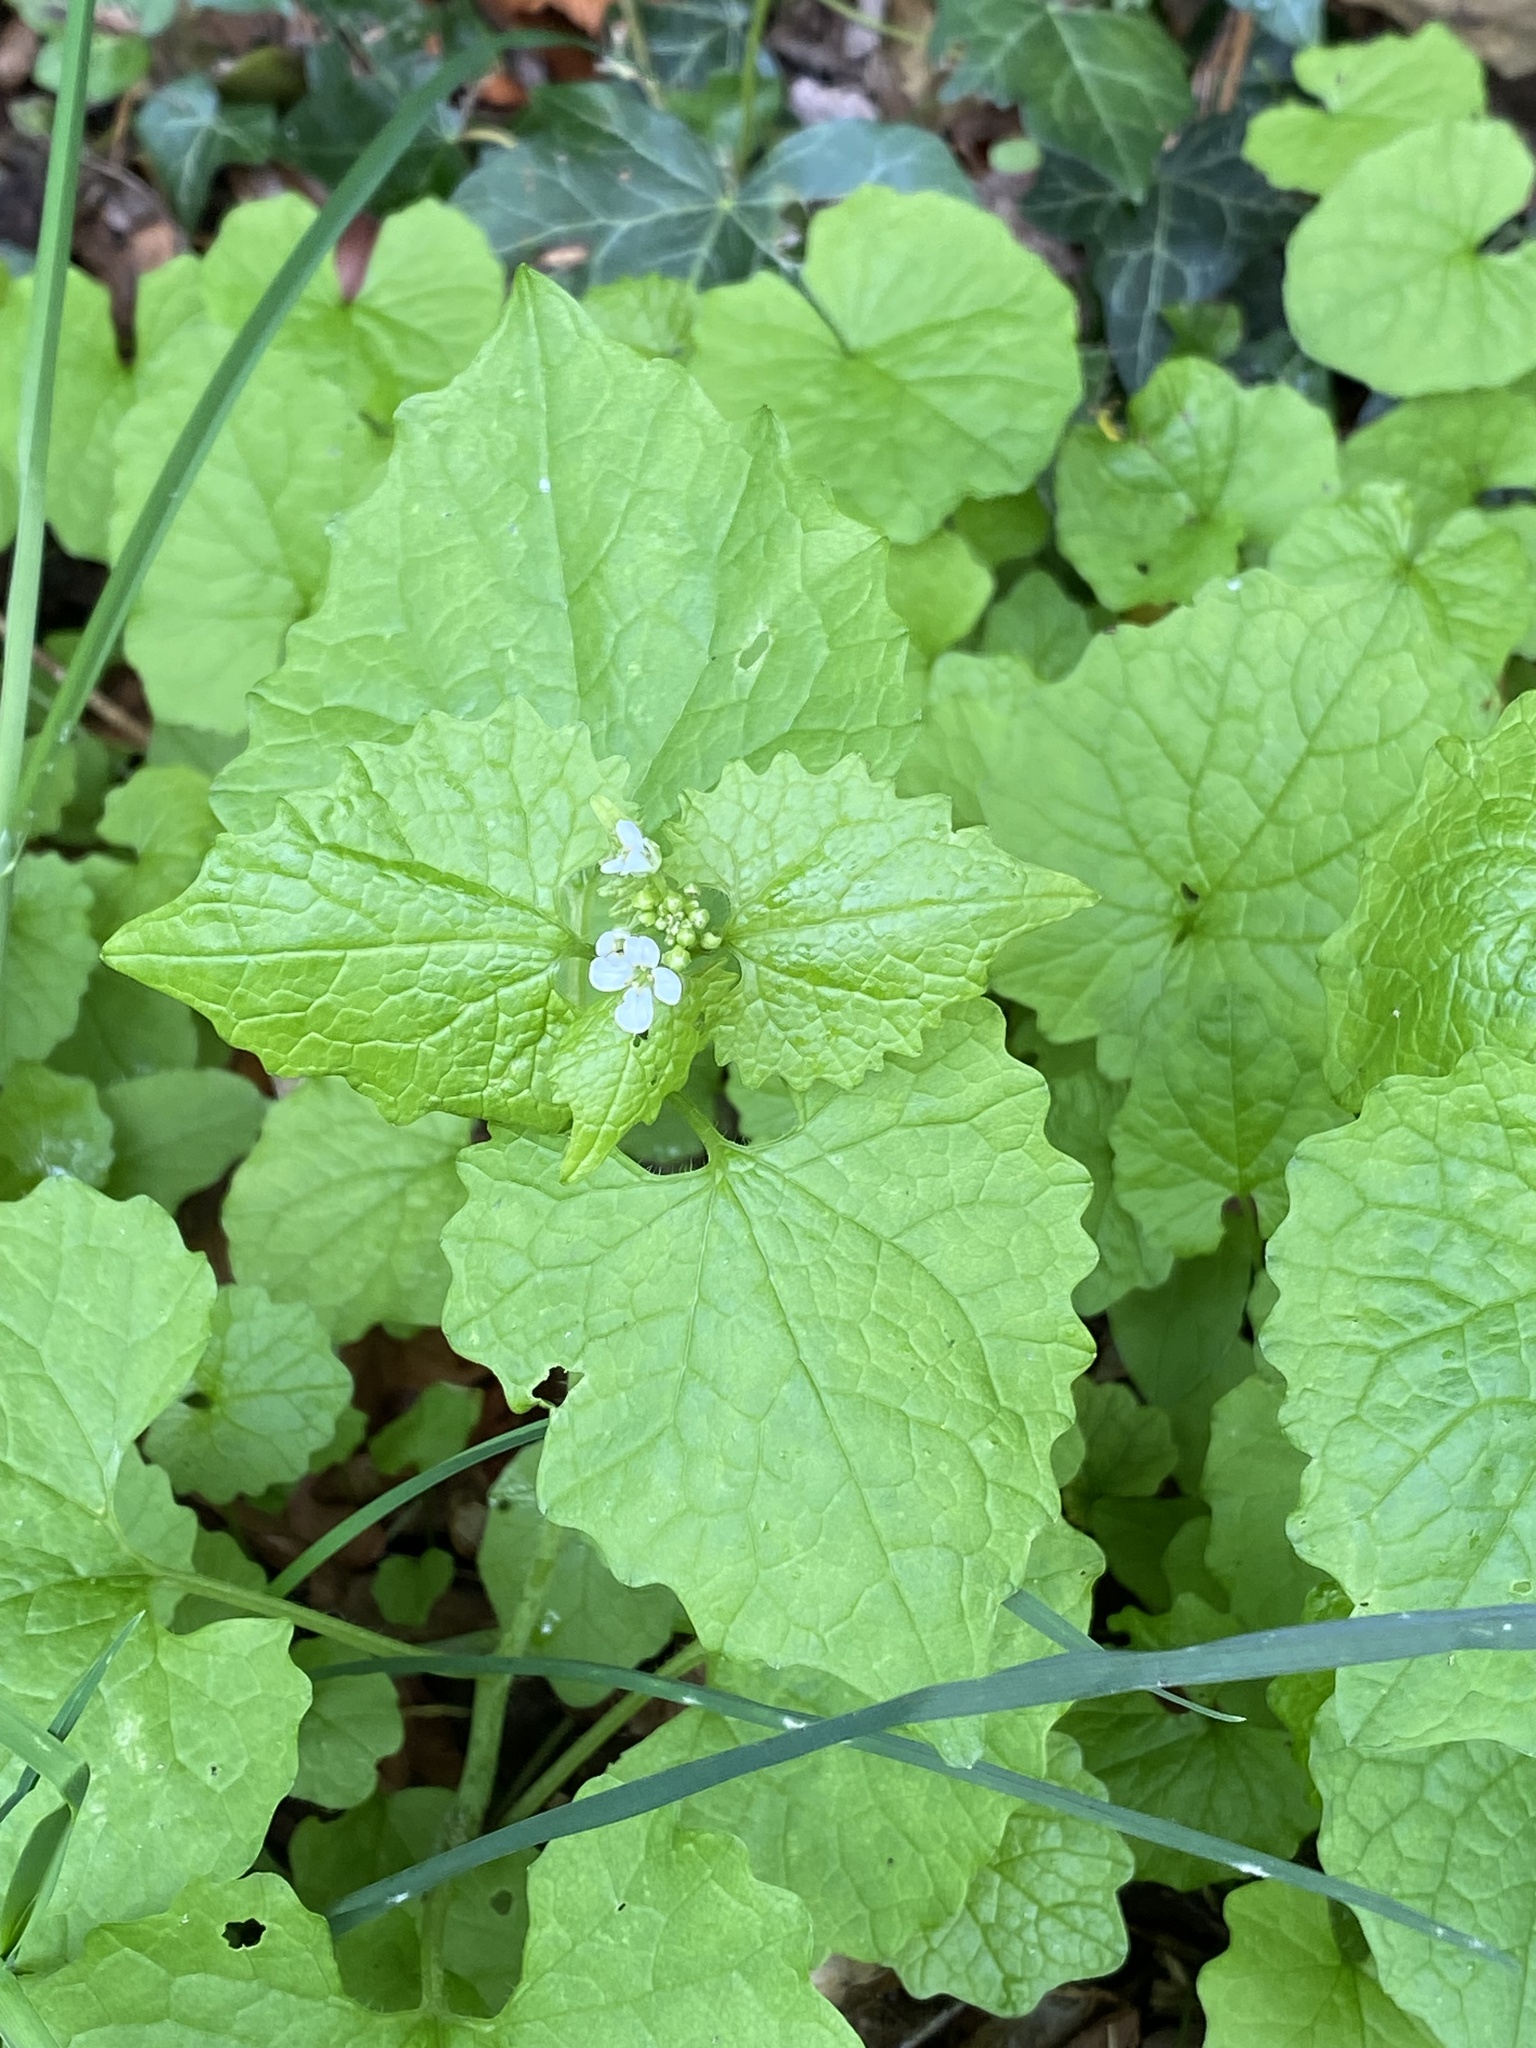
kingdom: Plantae
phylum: Tracheophyta
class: Magnoliopsida
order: Brassicales
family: Brassicaceae
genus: Alliaria
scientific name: Alliaria petiolata
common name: Garlic mustard
